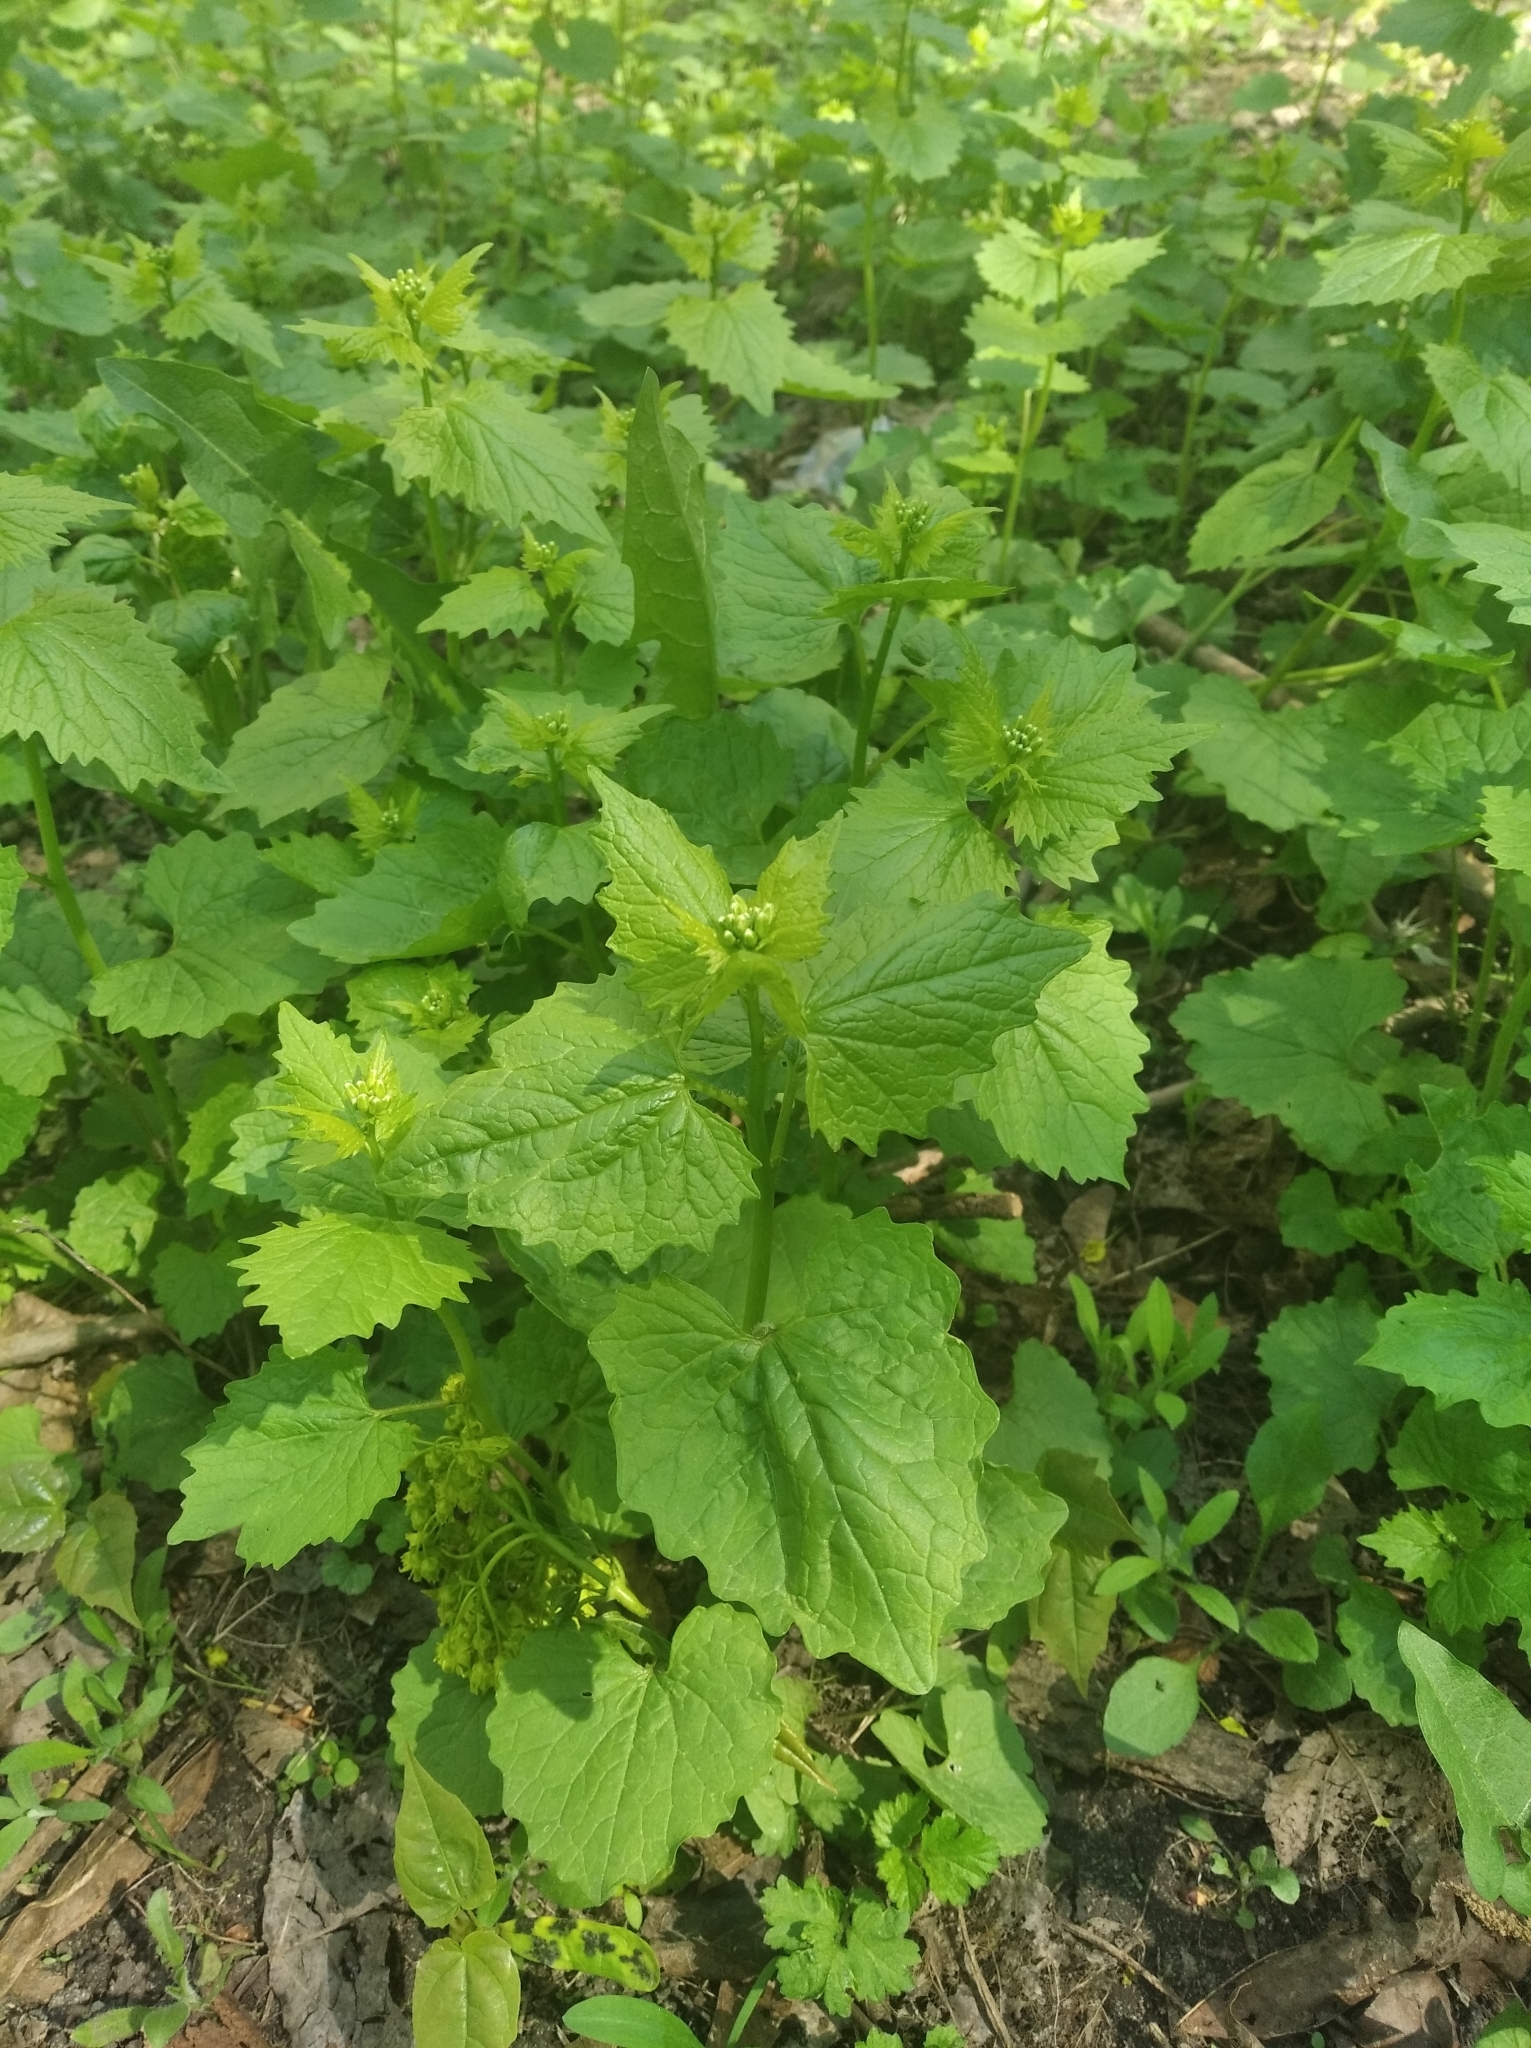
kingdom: Plantae
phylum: Tracheophyta
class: Magnoliopsida
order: Brassicales
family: Brassicaceae
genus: Alliaria
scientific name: Alliaria petiolata
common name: Garlic mustard
